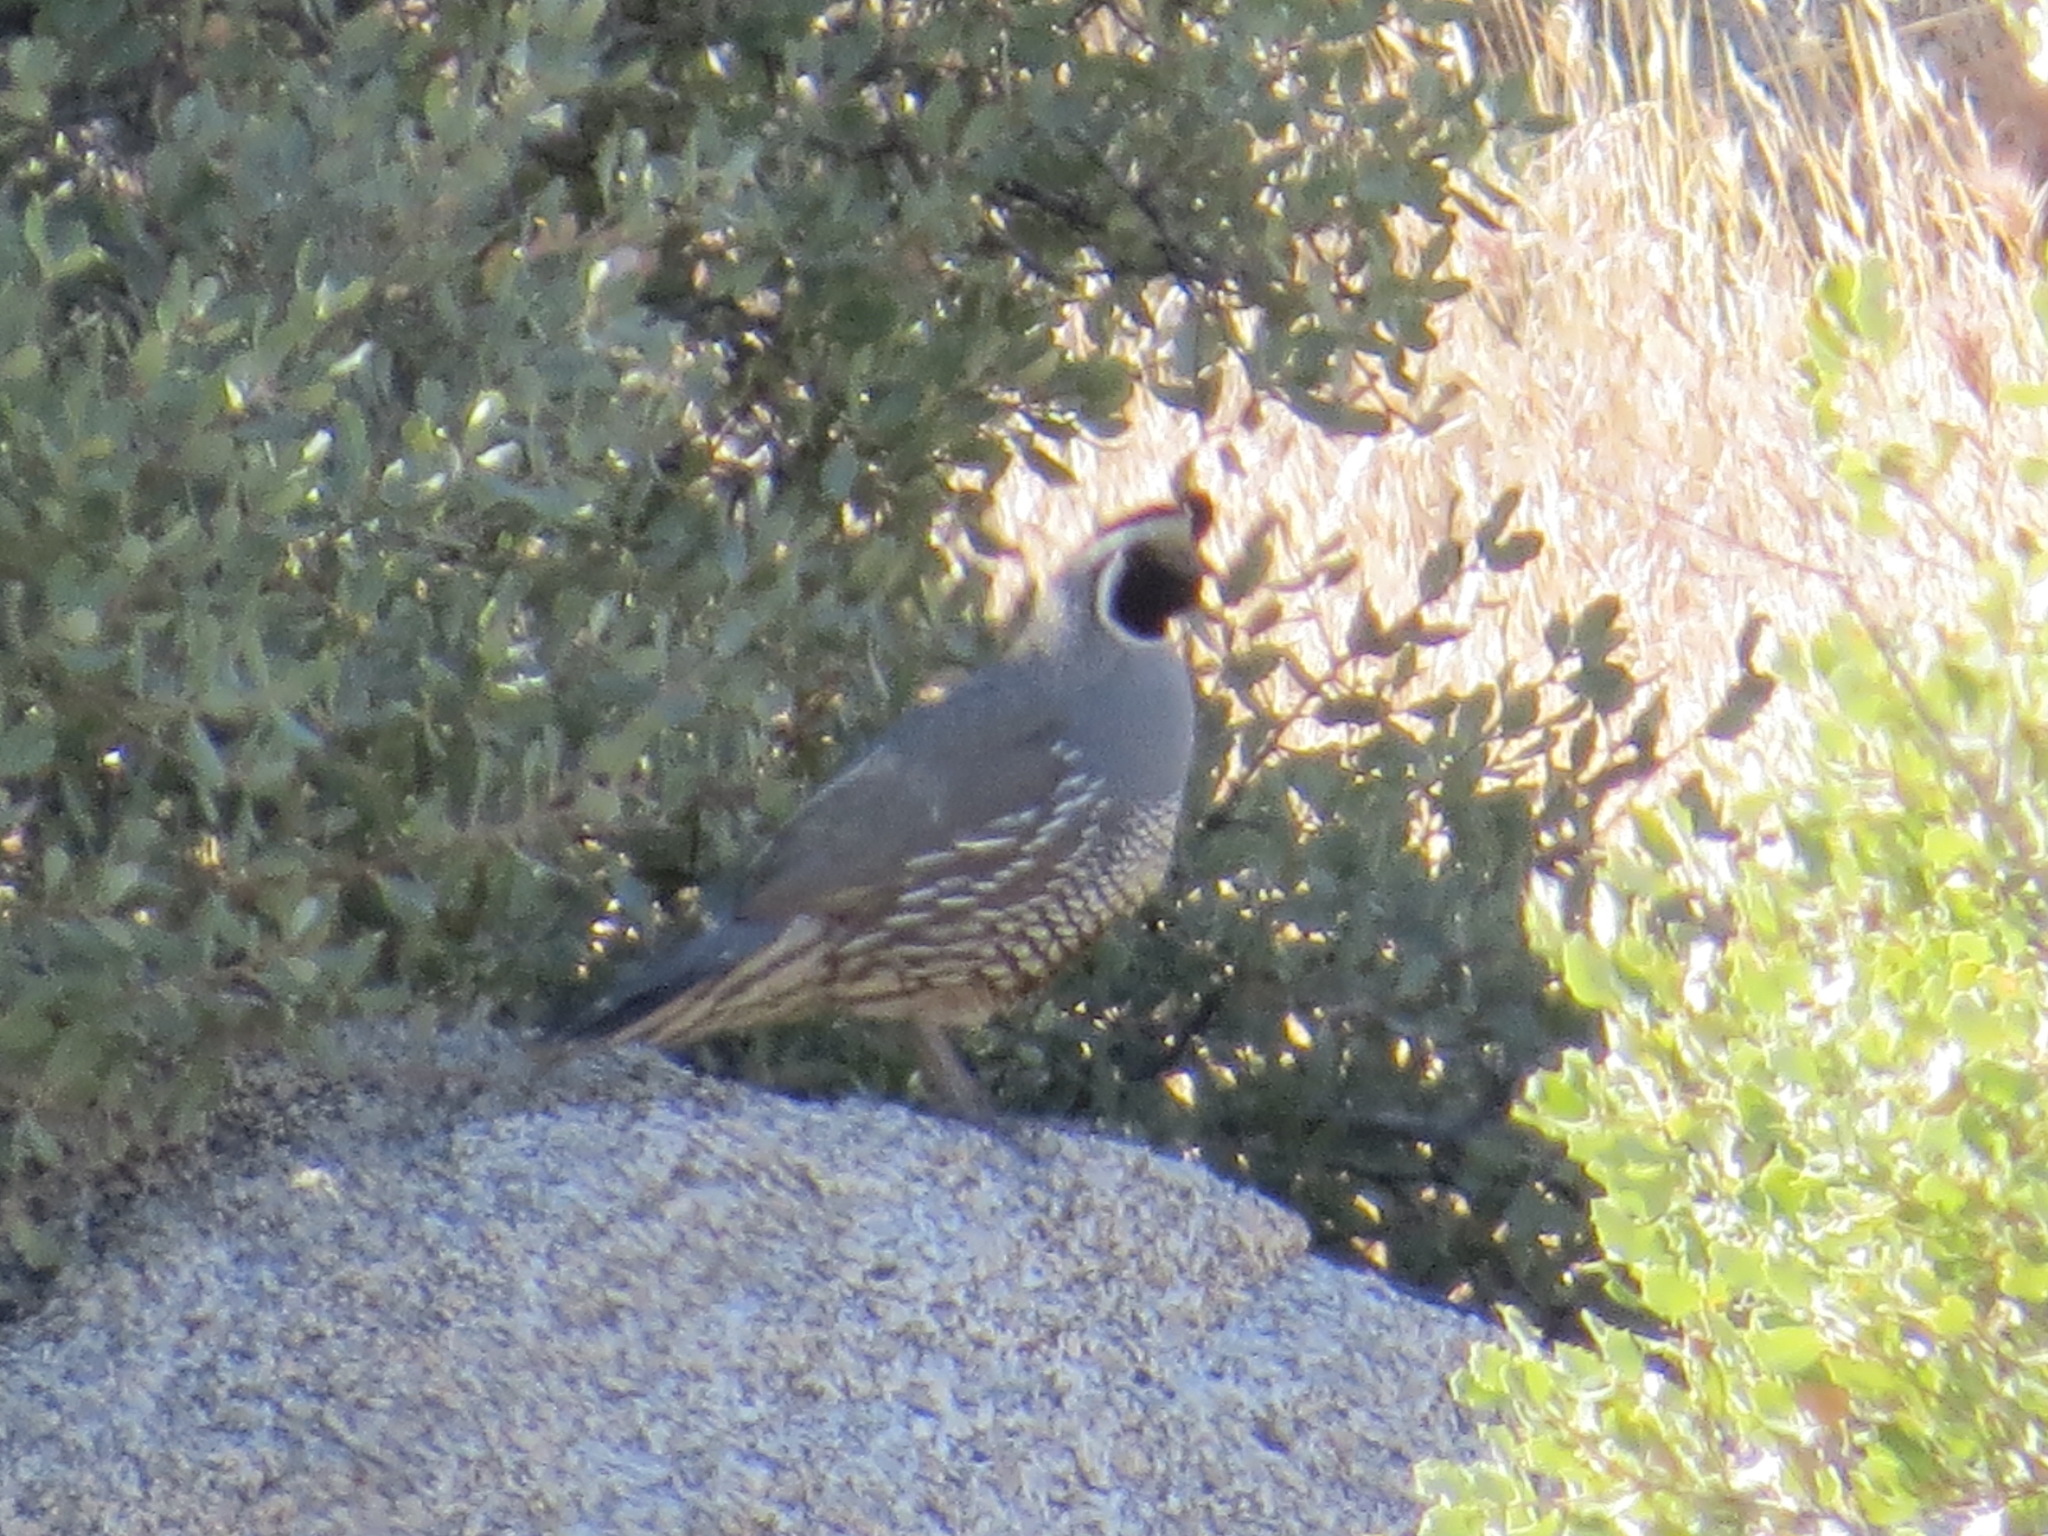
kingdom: Animalia
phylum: Chordata
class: Aves
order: Galliformes
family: Odontophoridae
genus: Callipepla
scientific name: Callipepla californica
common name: California quail
